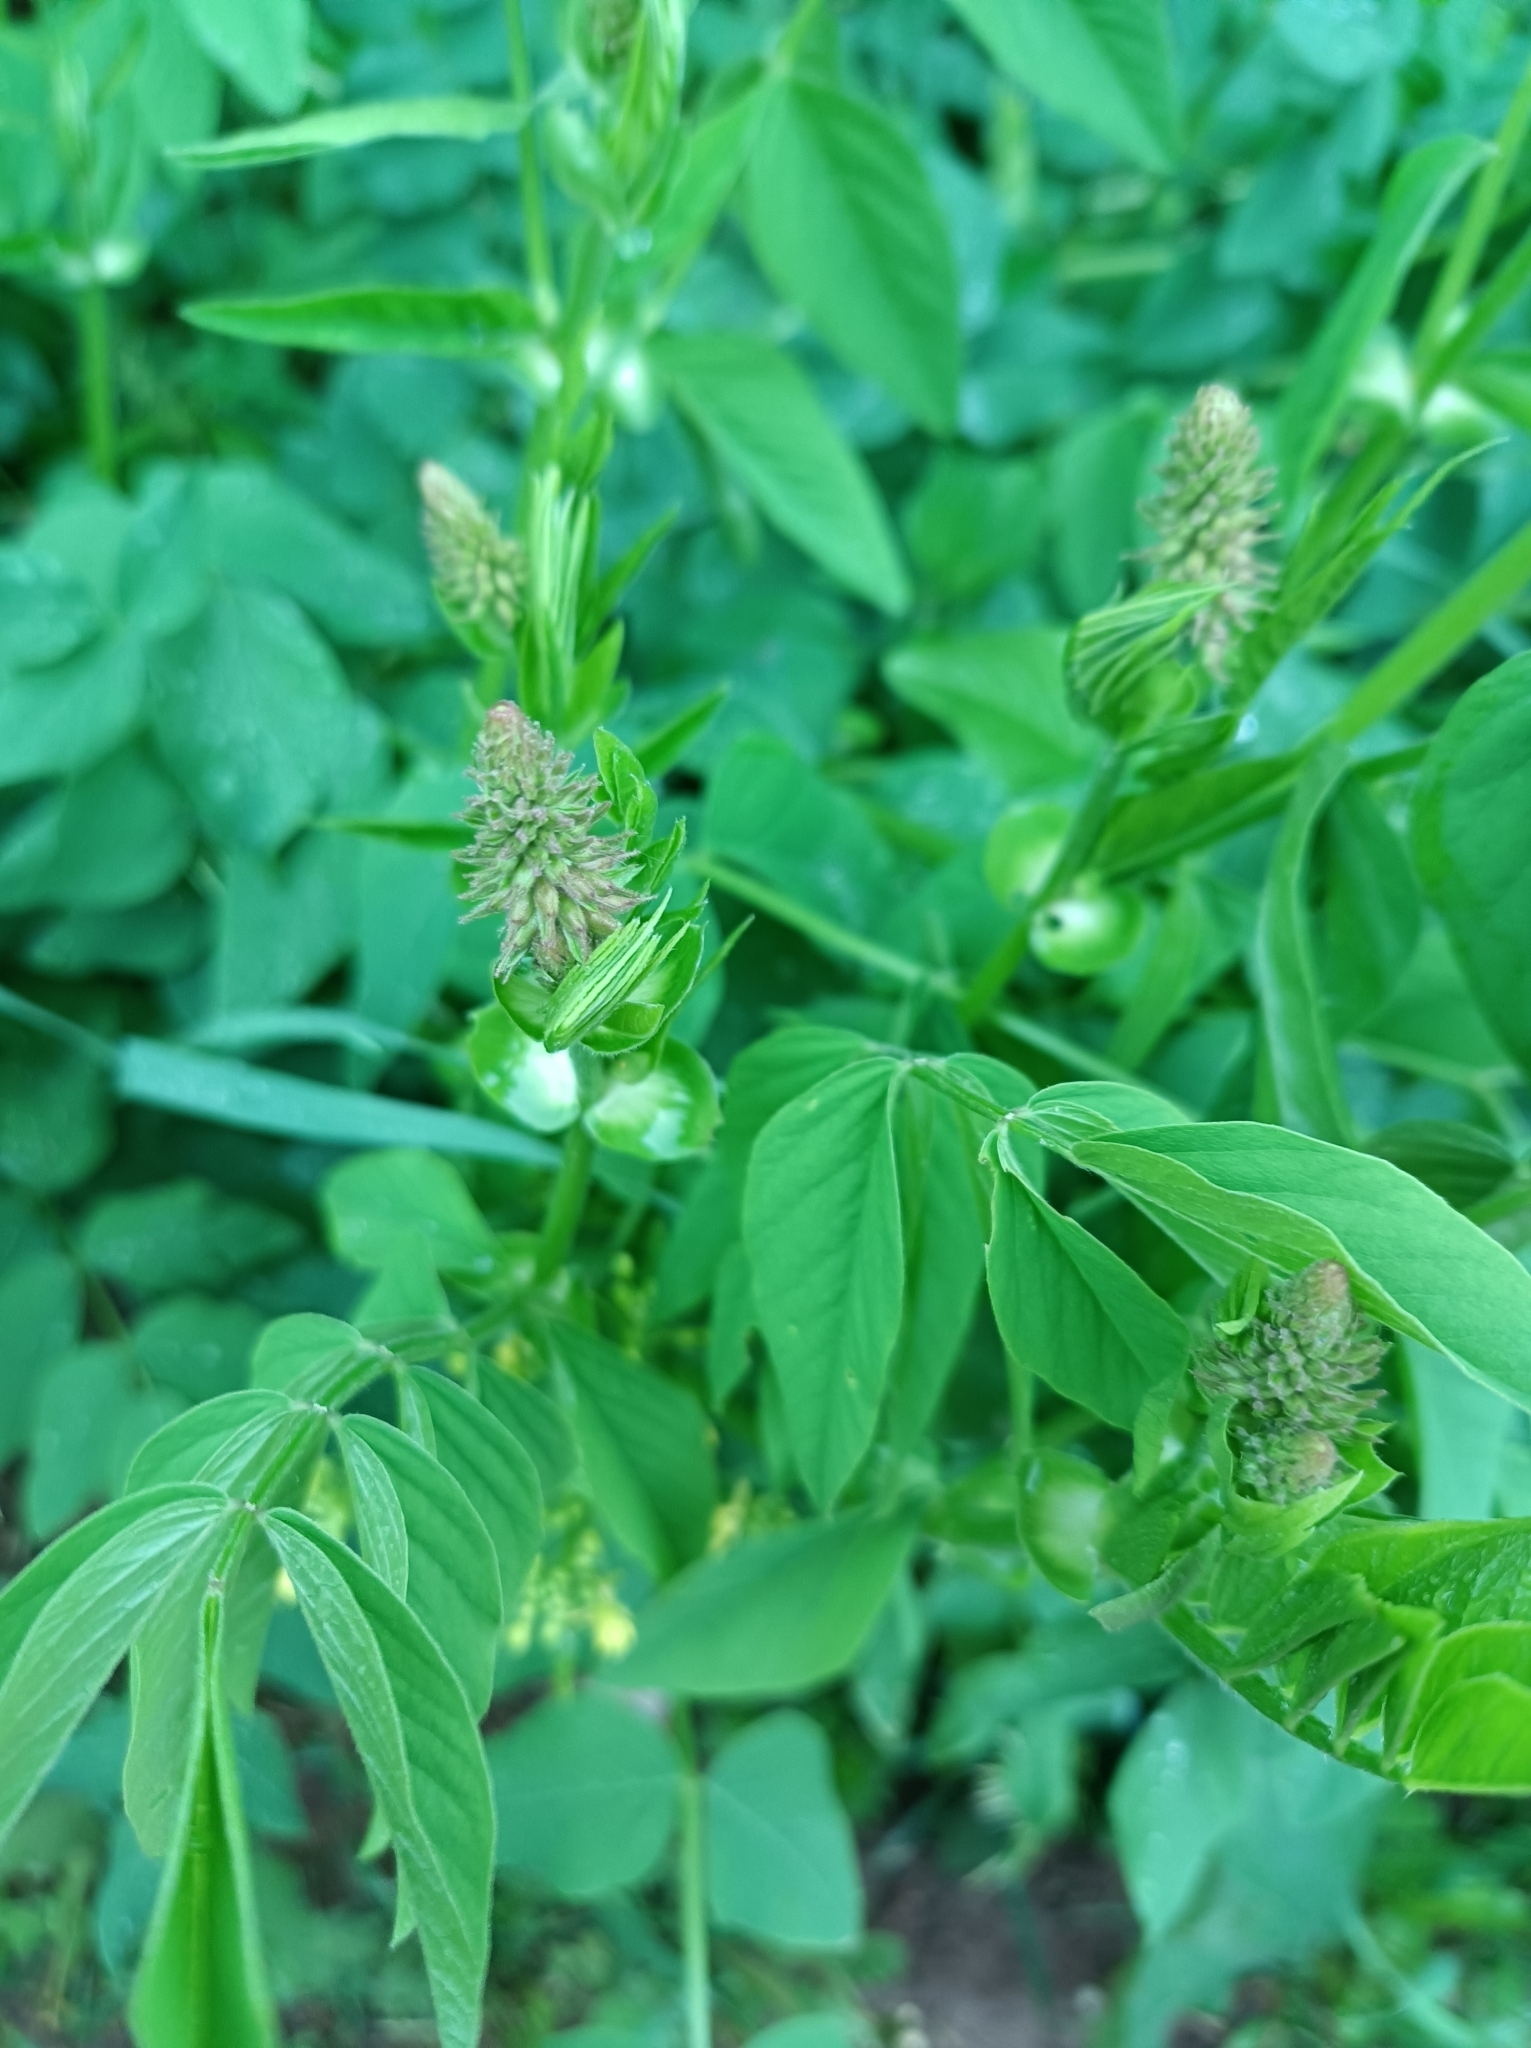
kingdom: Plantae
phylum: Tracheophyta
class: Magnoliopsida
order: Fabales
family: Fabaceae
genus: Galega
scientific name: Galega orientalis
